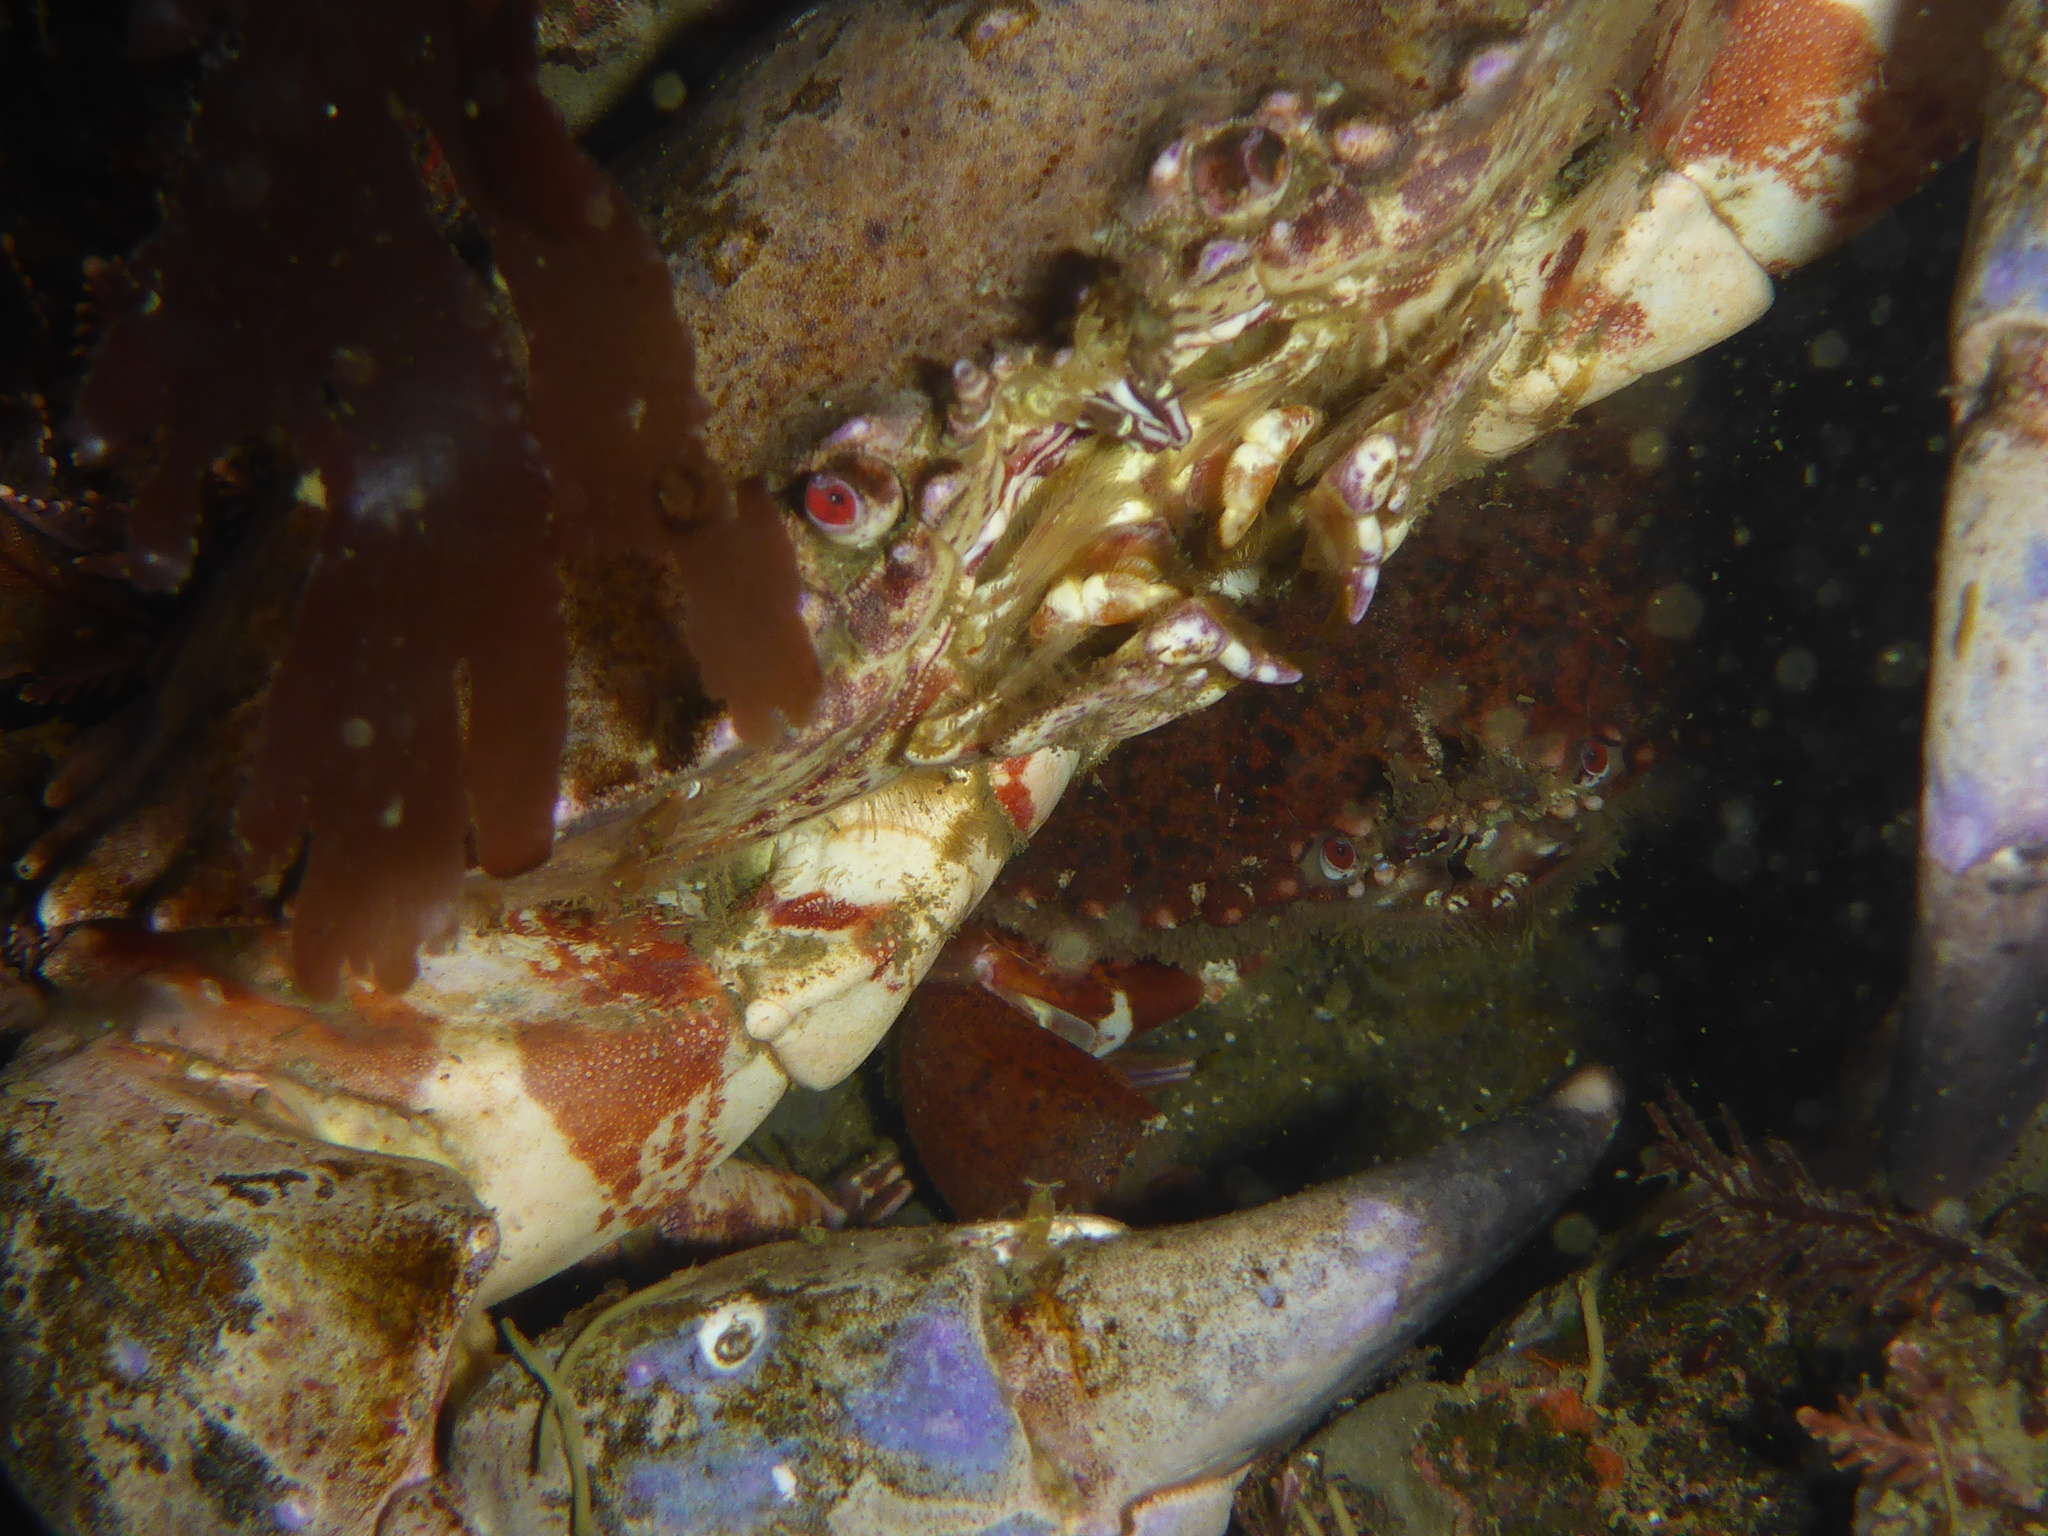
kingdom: Animalia
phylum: Arthropoda
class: Malacostraca
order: Decapoda
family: Cancridae
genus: Romaleon
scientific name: Romaleon antennarium
